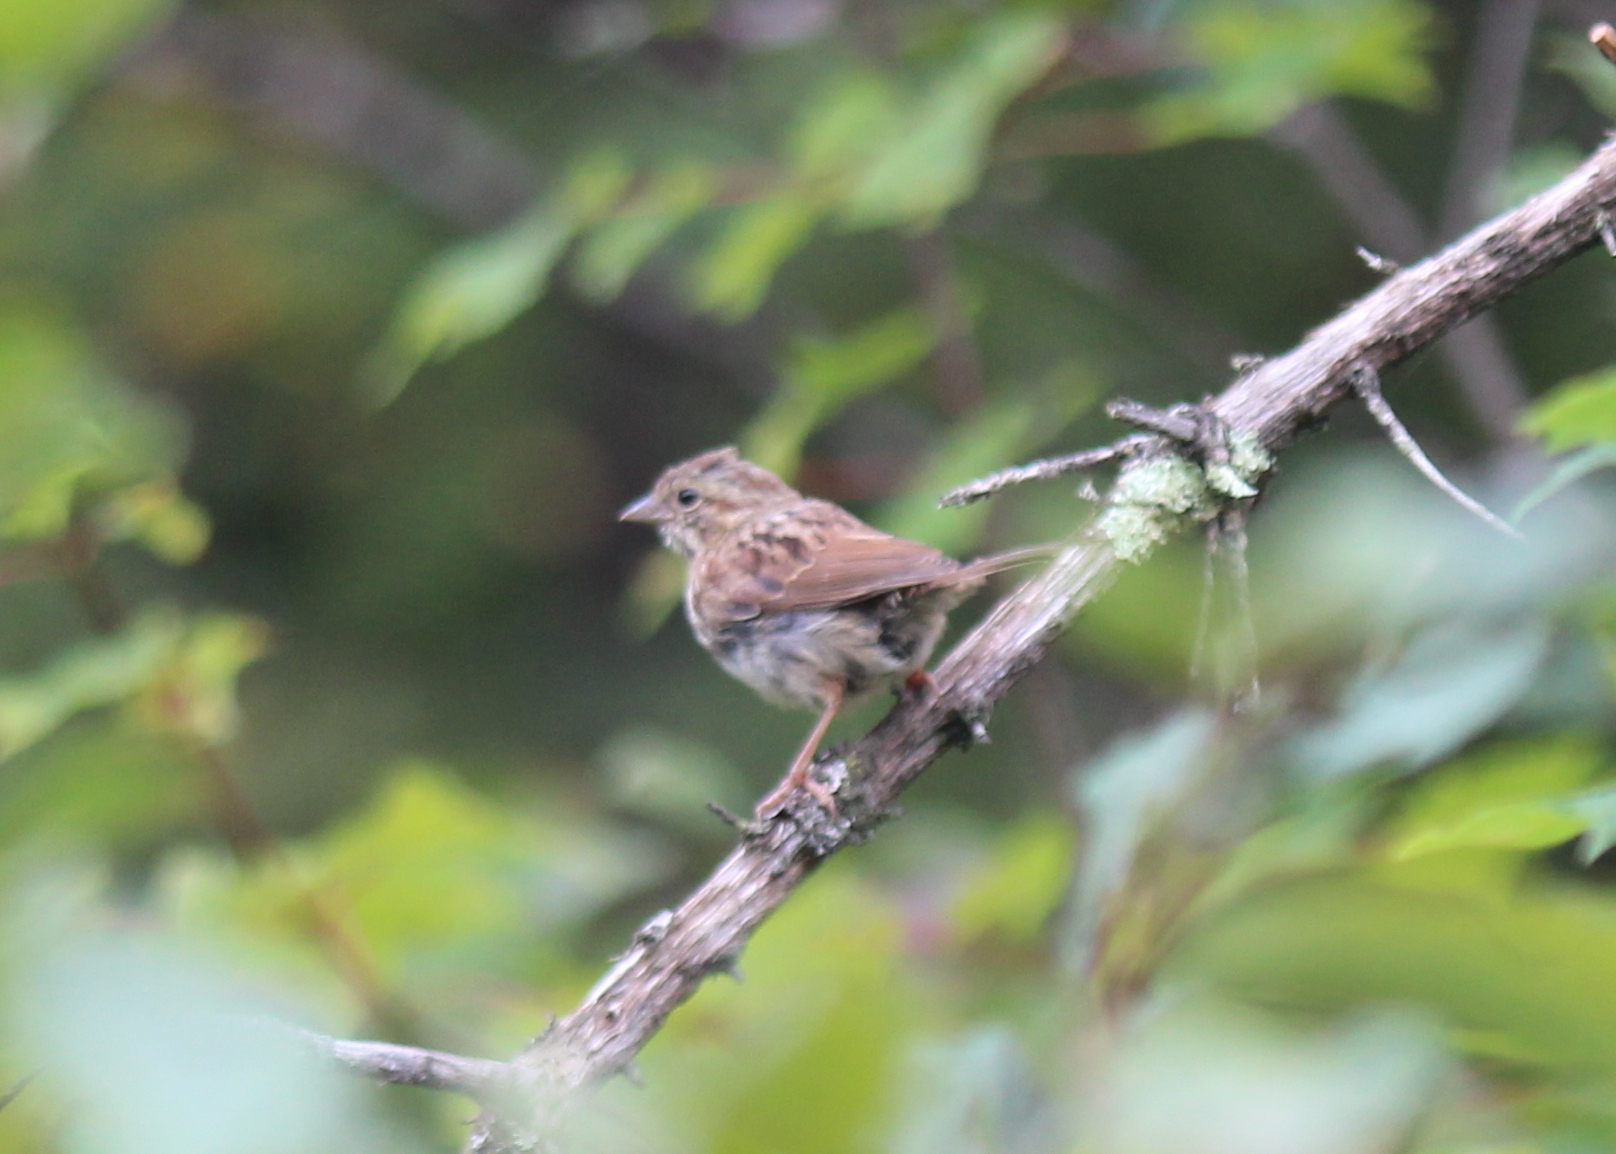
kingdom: Animalia
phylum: Chordata
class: Aves
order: Passeriformes
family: Passerellidae
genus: Melospiza
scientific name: Melospiza melodia
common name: Song sparrow
